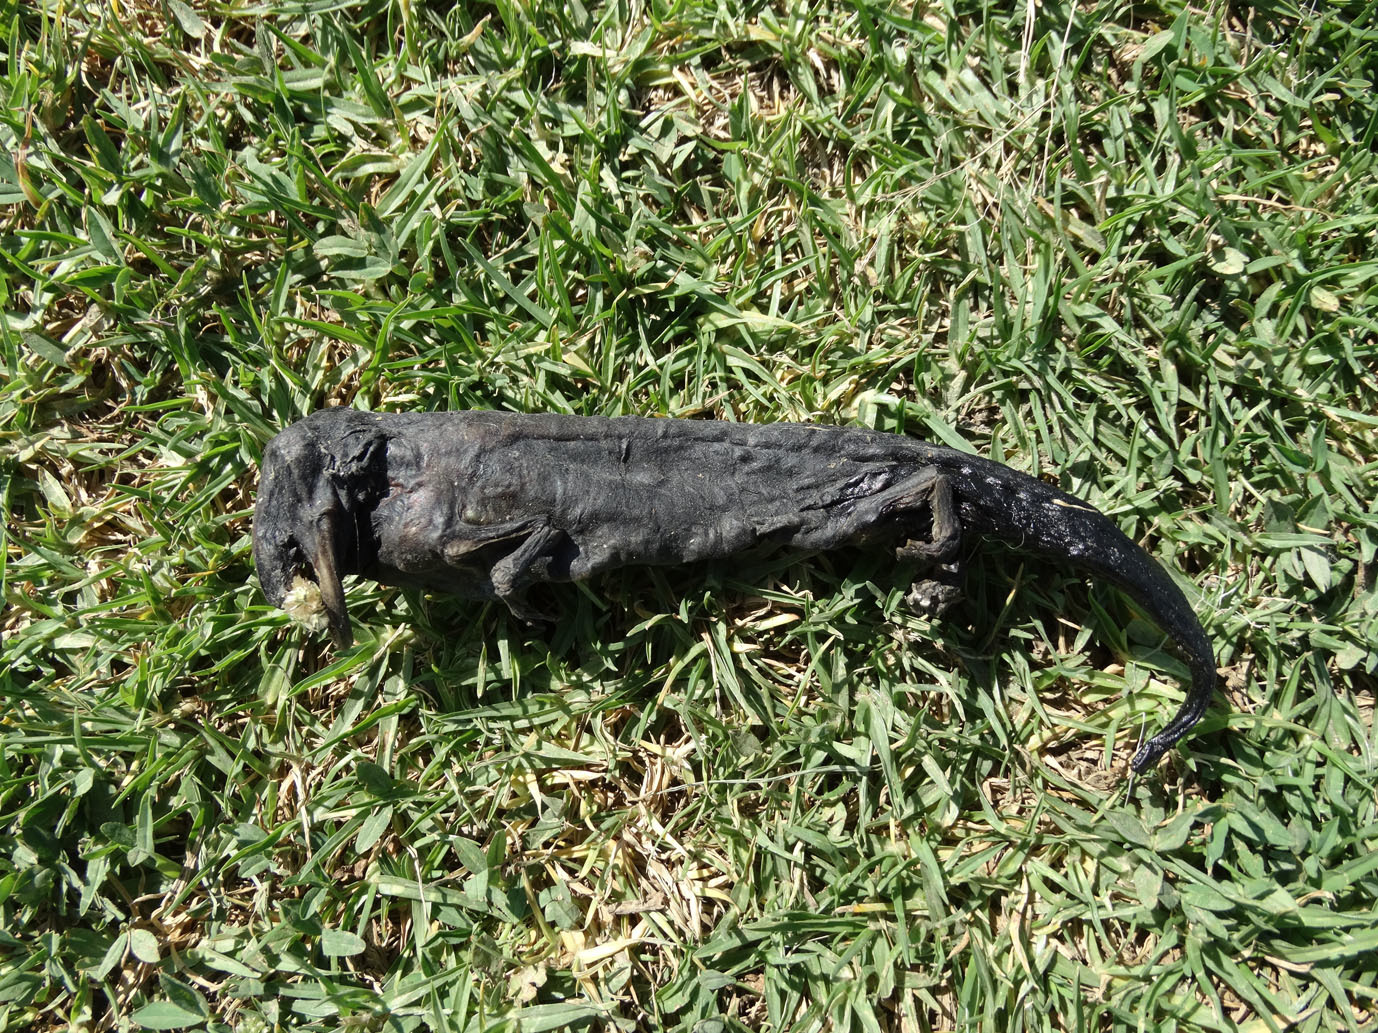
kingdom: Animalia
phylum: Chordata
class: Amphibia
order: Caudata
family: Ambystomatidae
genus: Ambystoma
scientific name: Ambystoma velasci
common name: Plateau tiger salamander
